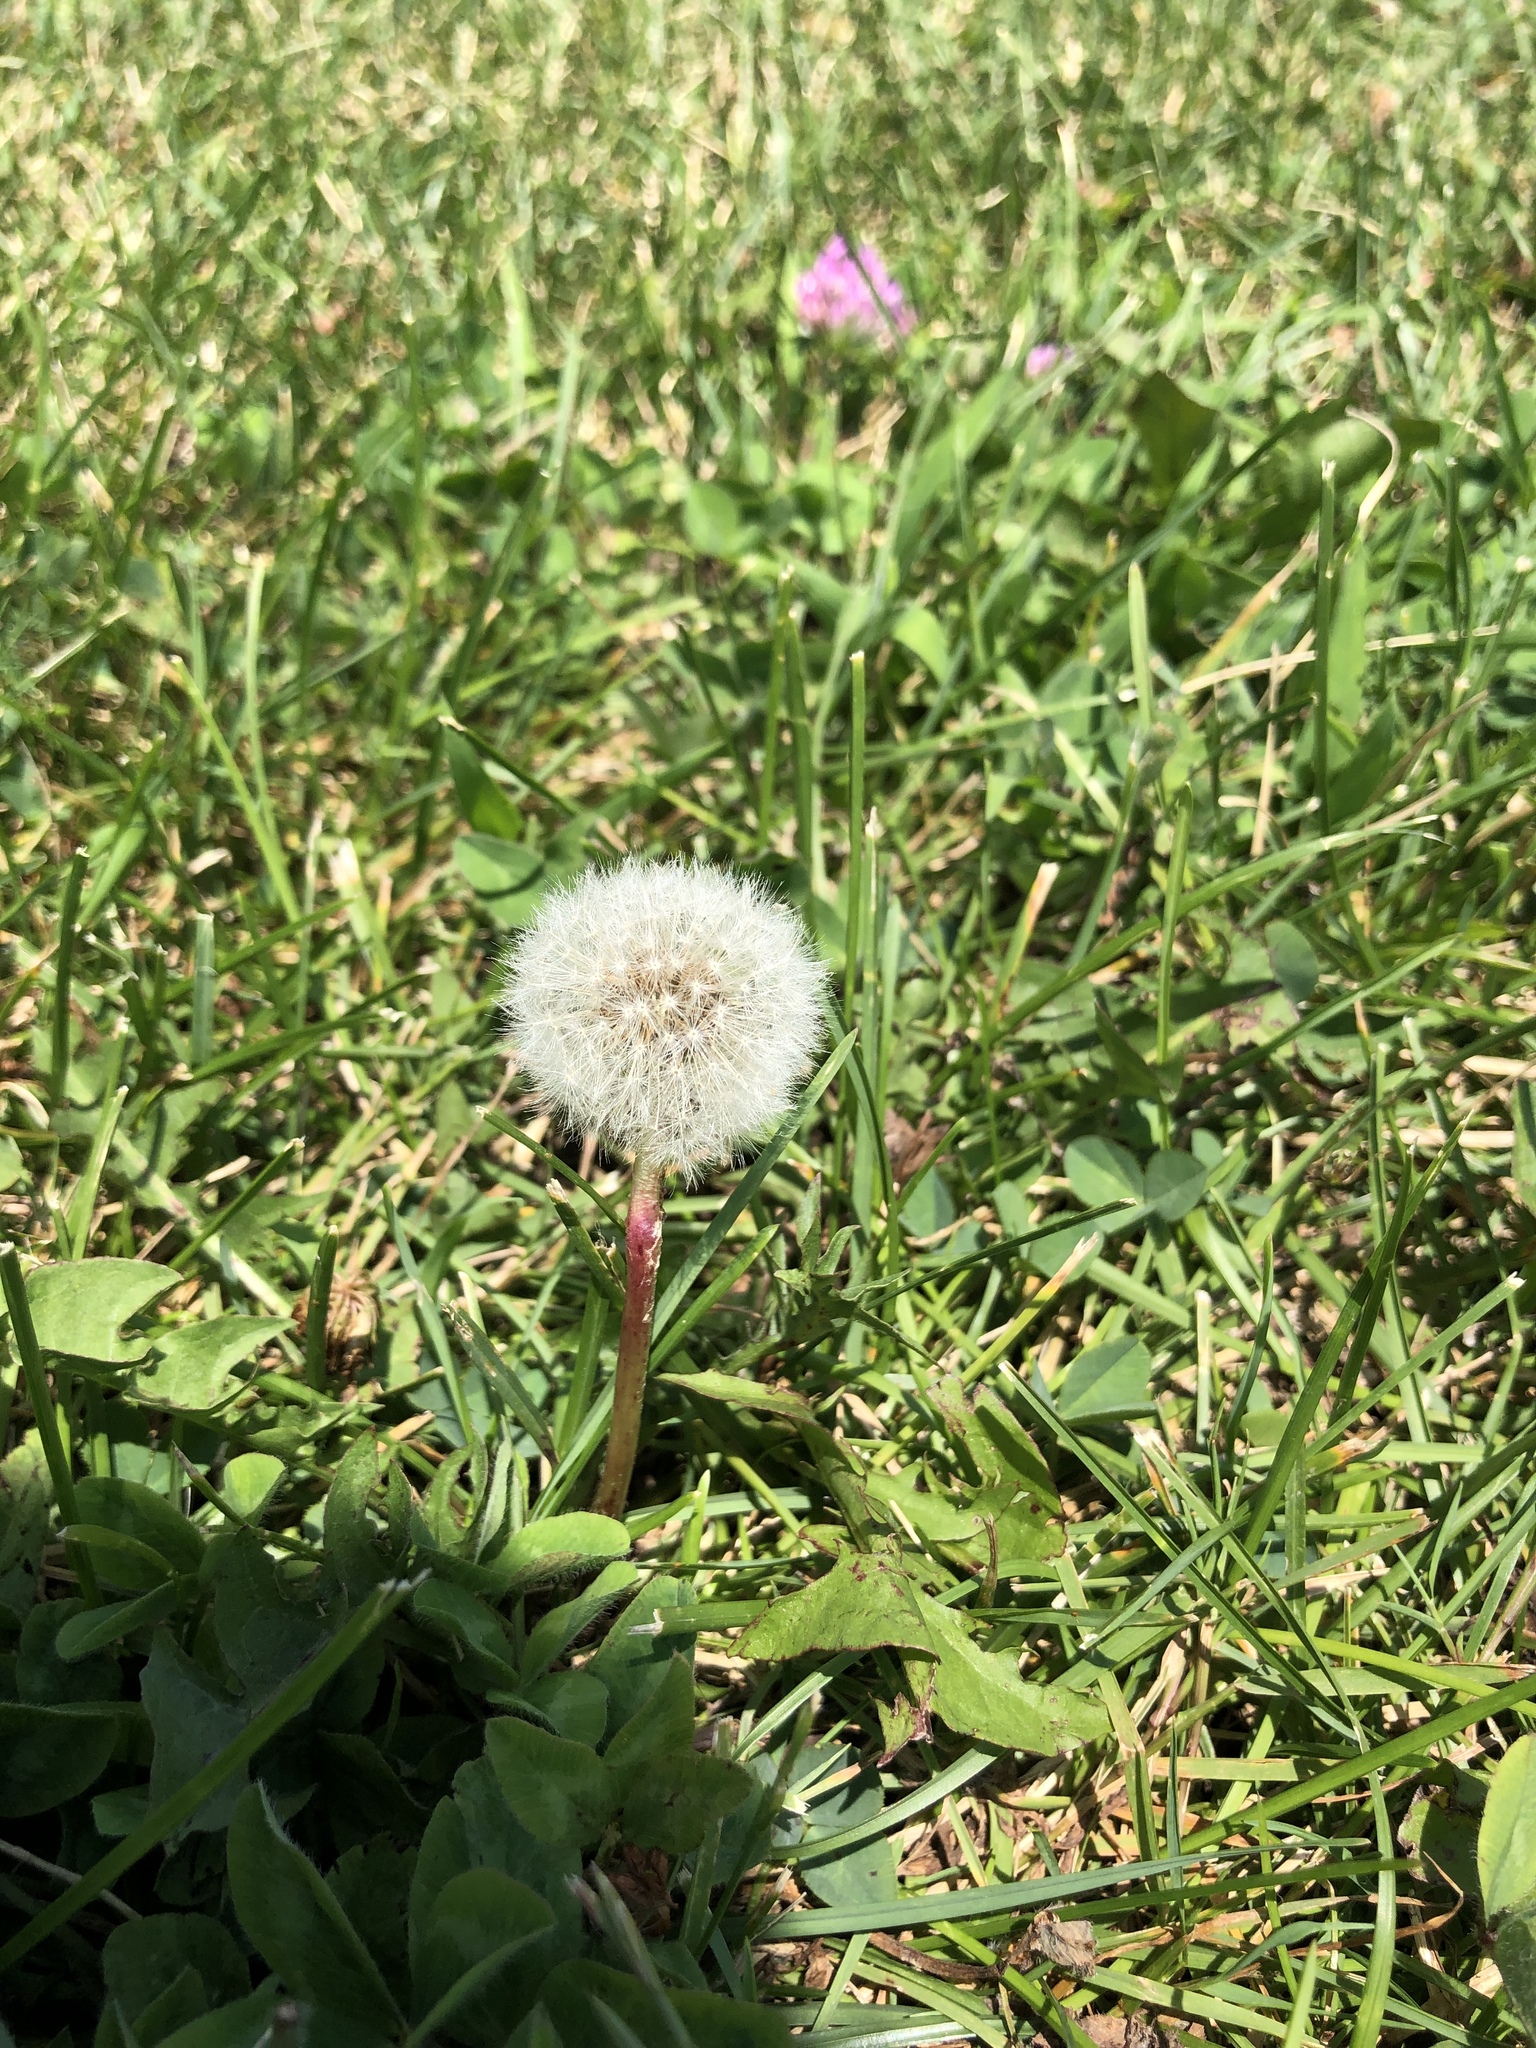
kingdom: Plantae
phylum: Tracheophyta
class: Magnoliopsida
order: Asterales
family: Asteraceae
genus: Taraxacum
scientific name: Taraxacum officinale
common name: Common dandelion
